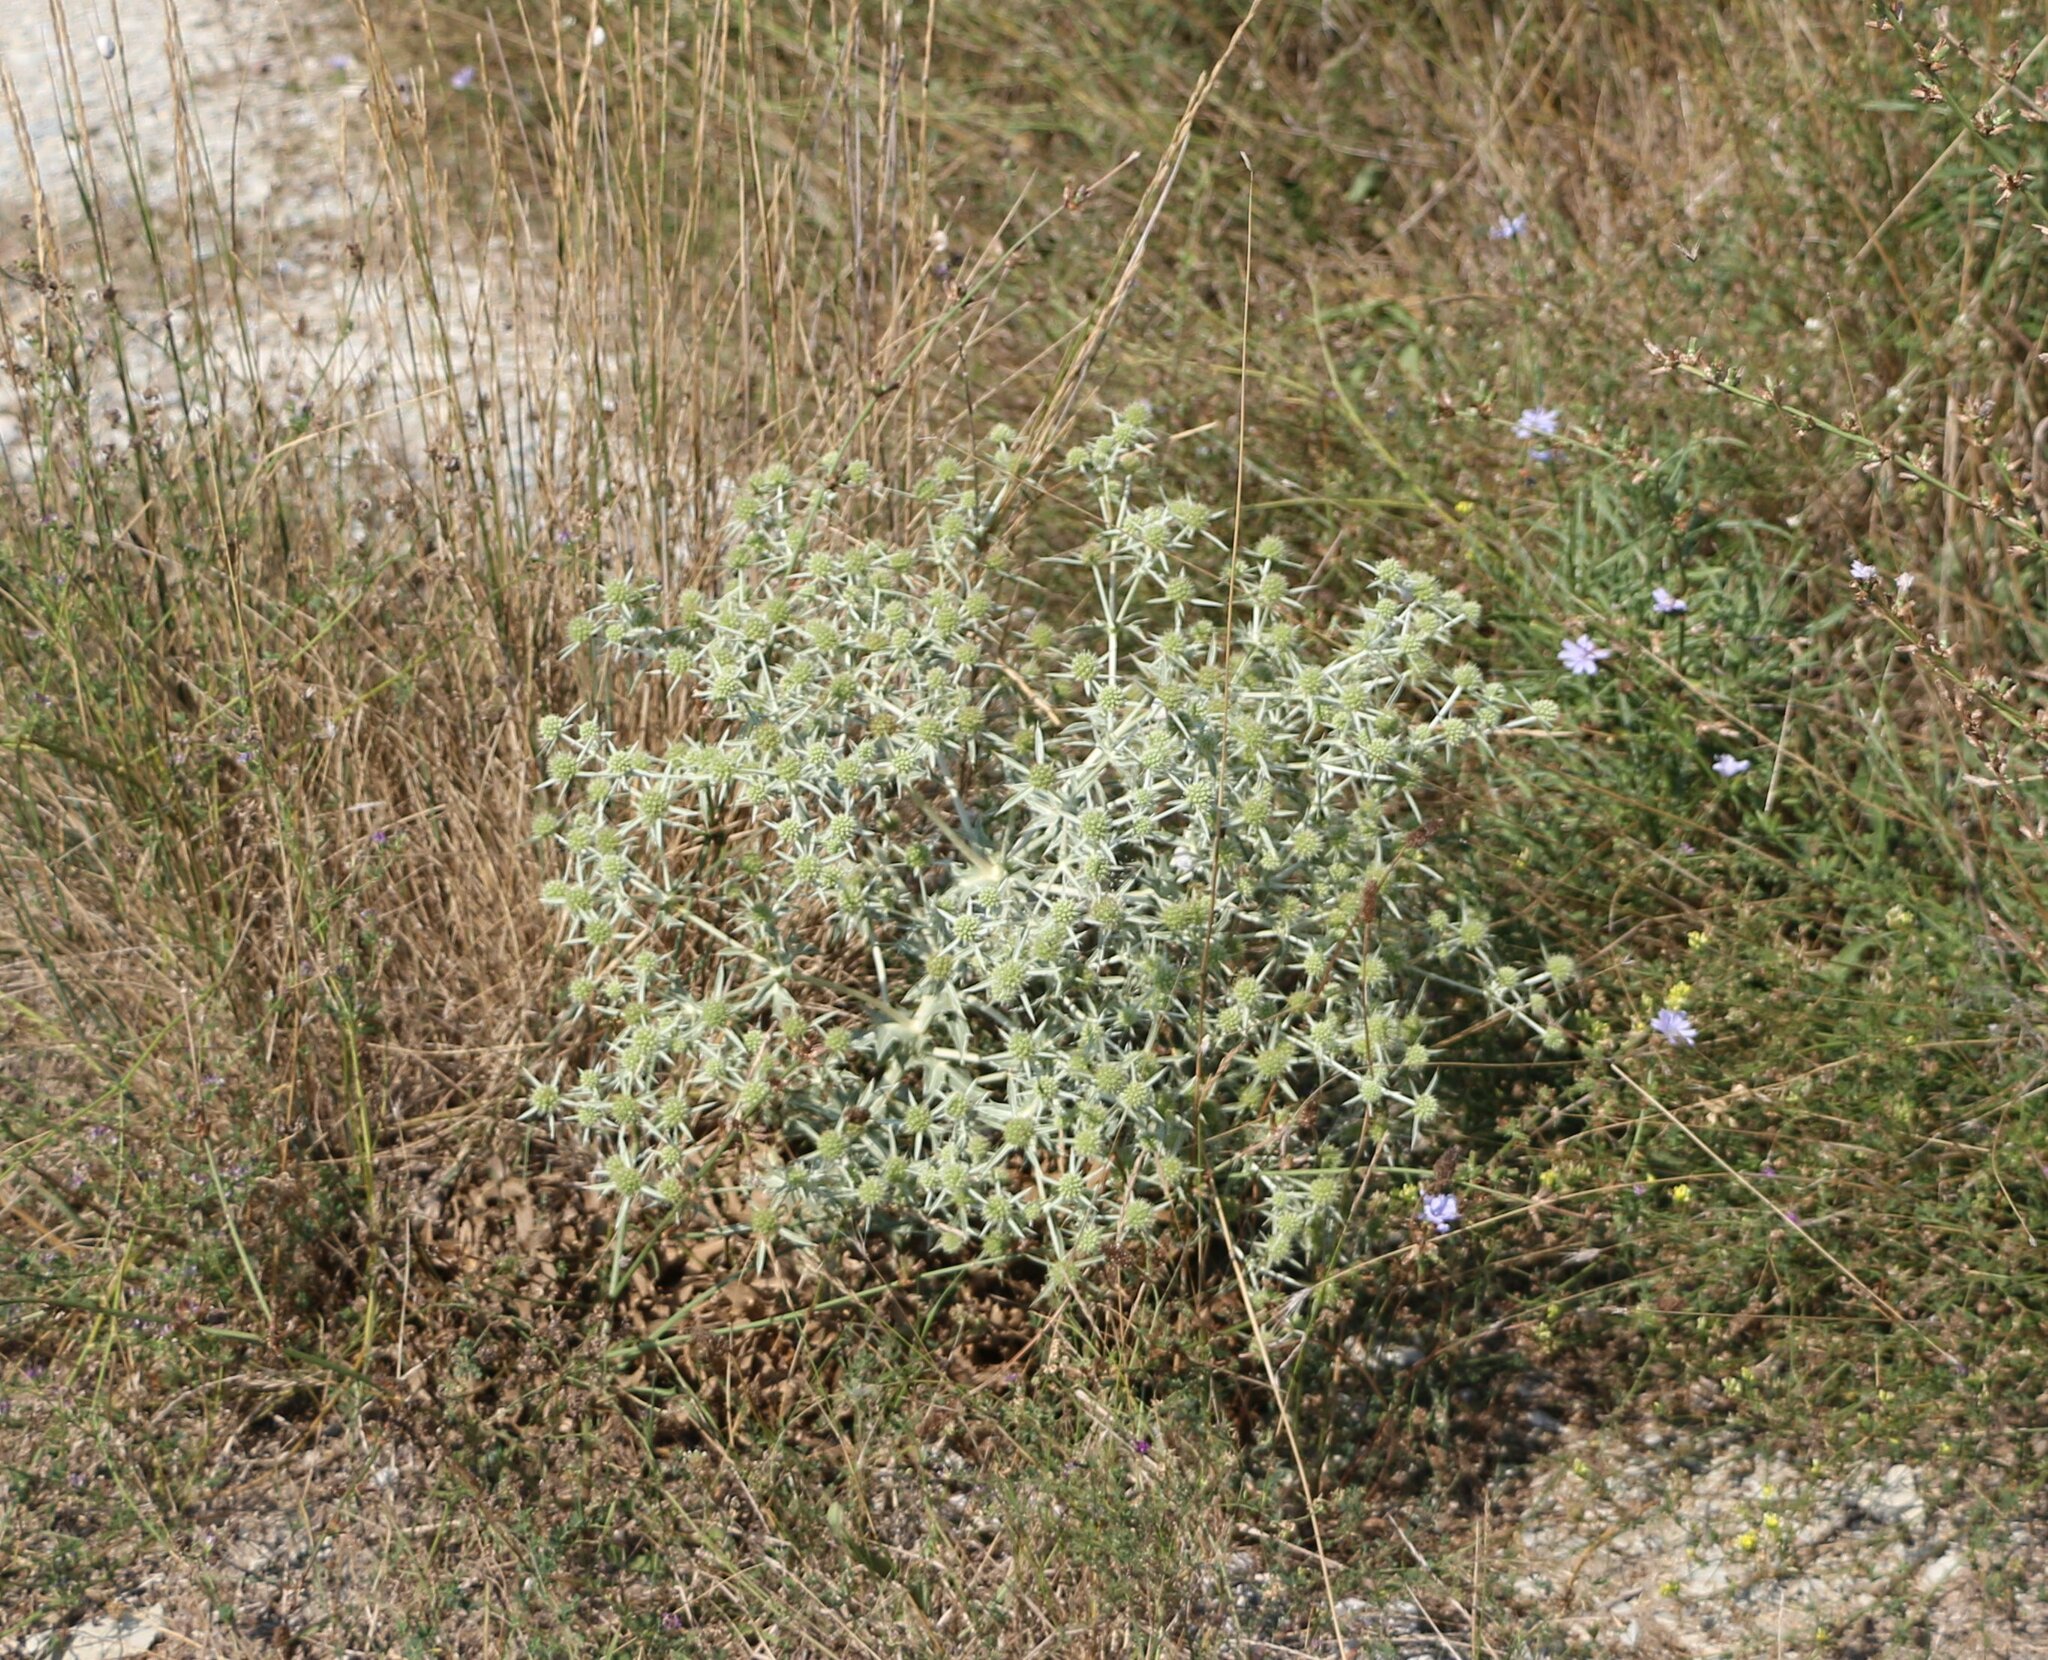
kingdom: Plantae
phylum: Tracheophyta
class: Magnoliopsida
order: Apiales
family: Apiaceae
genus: Eryngium
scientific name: Eryngium campestre
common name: Field eryngo
